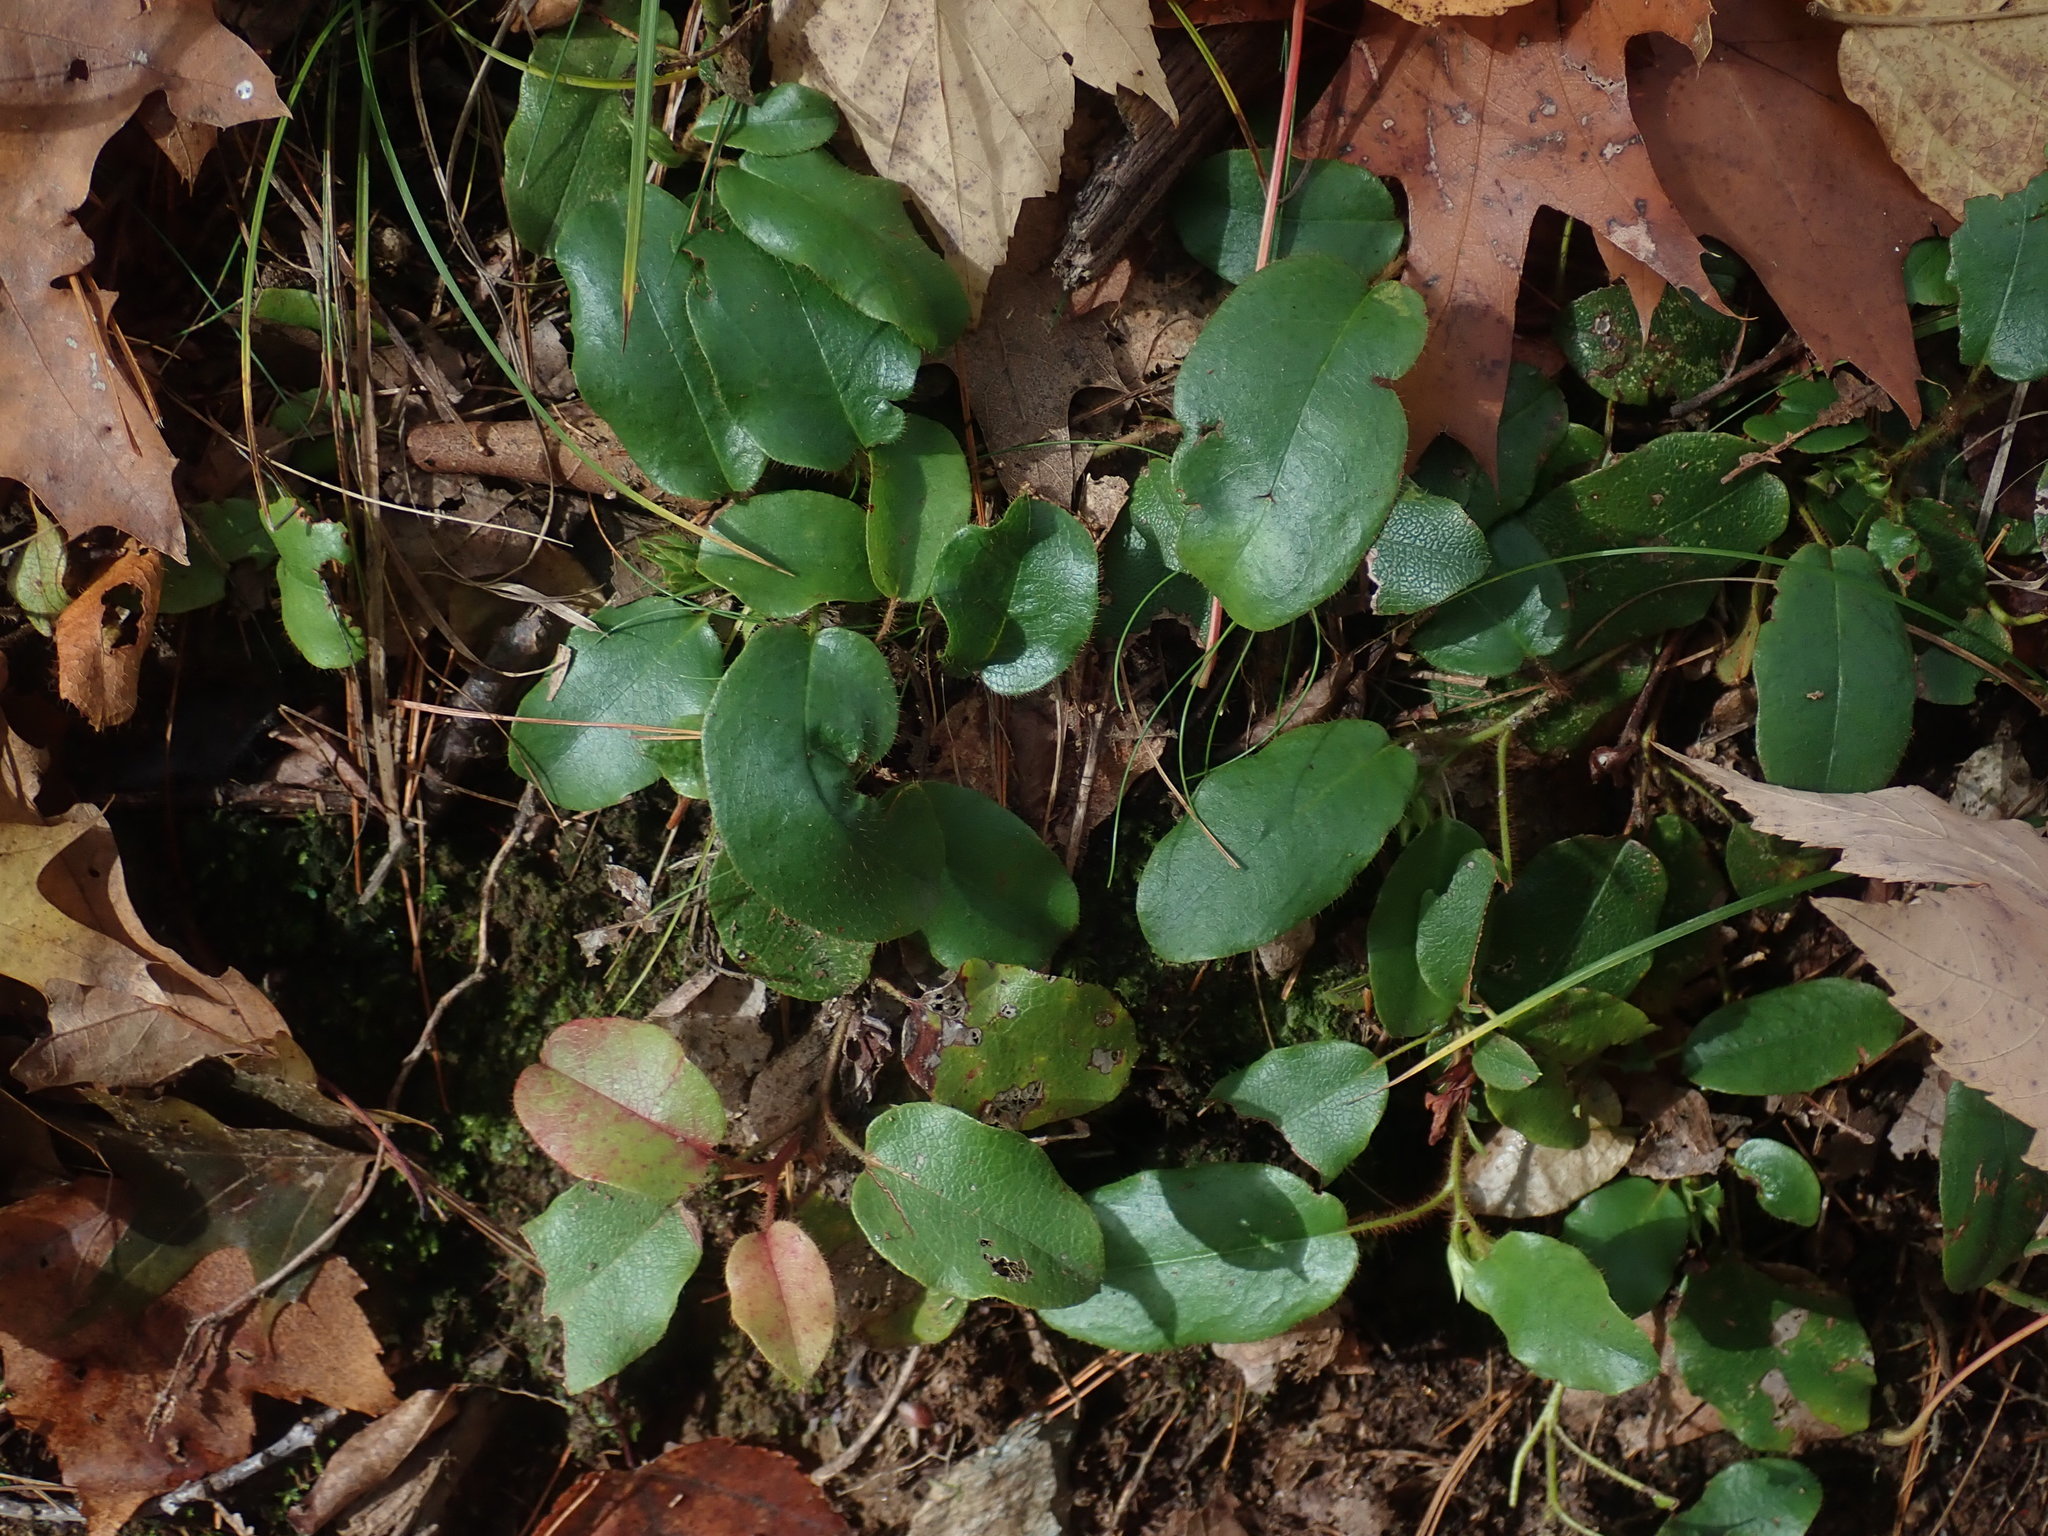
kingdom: Plantae
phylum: Tracheophyta
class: Magnoliopsida
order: Ericales
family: Ericaceae
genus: Epigaea
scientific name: Epigaea repens
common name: Gravelroot
